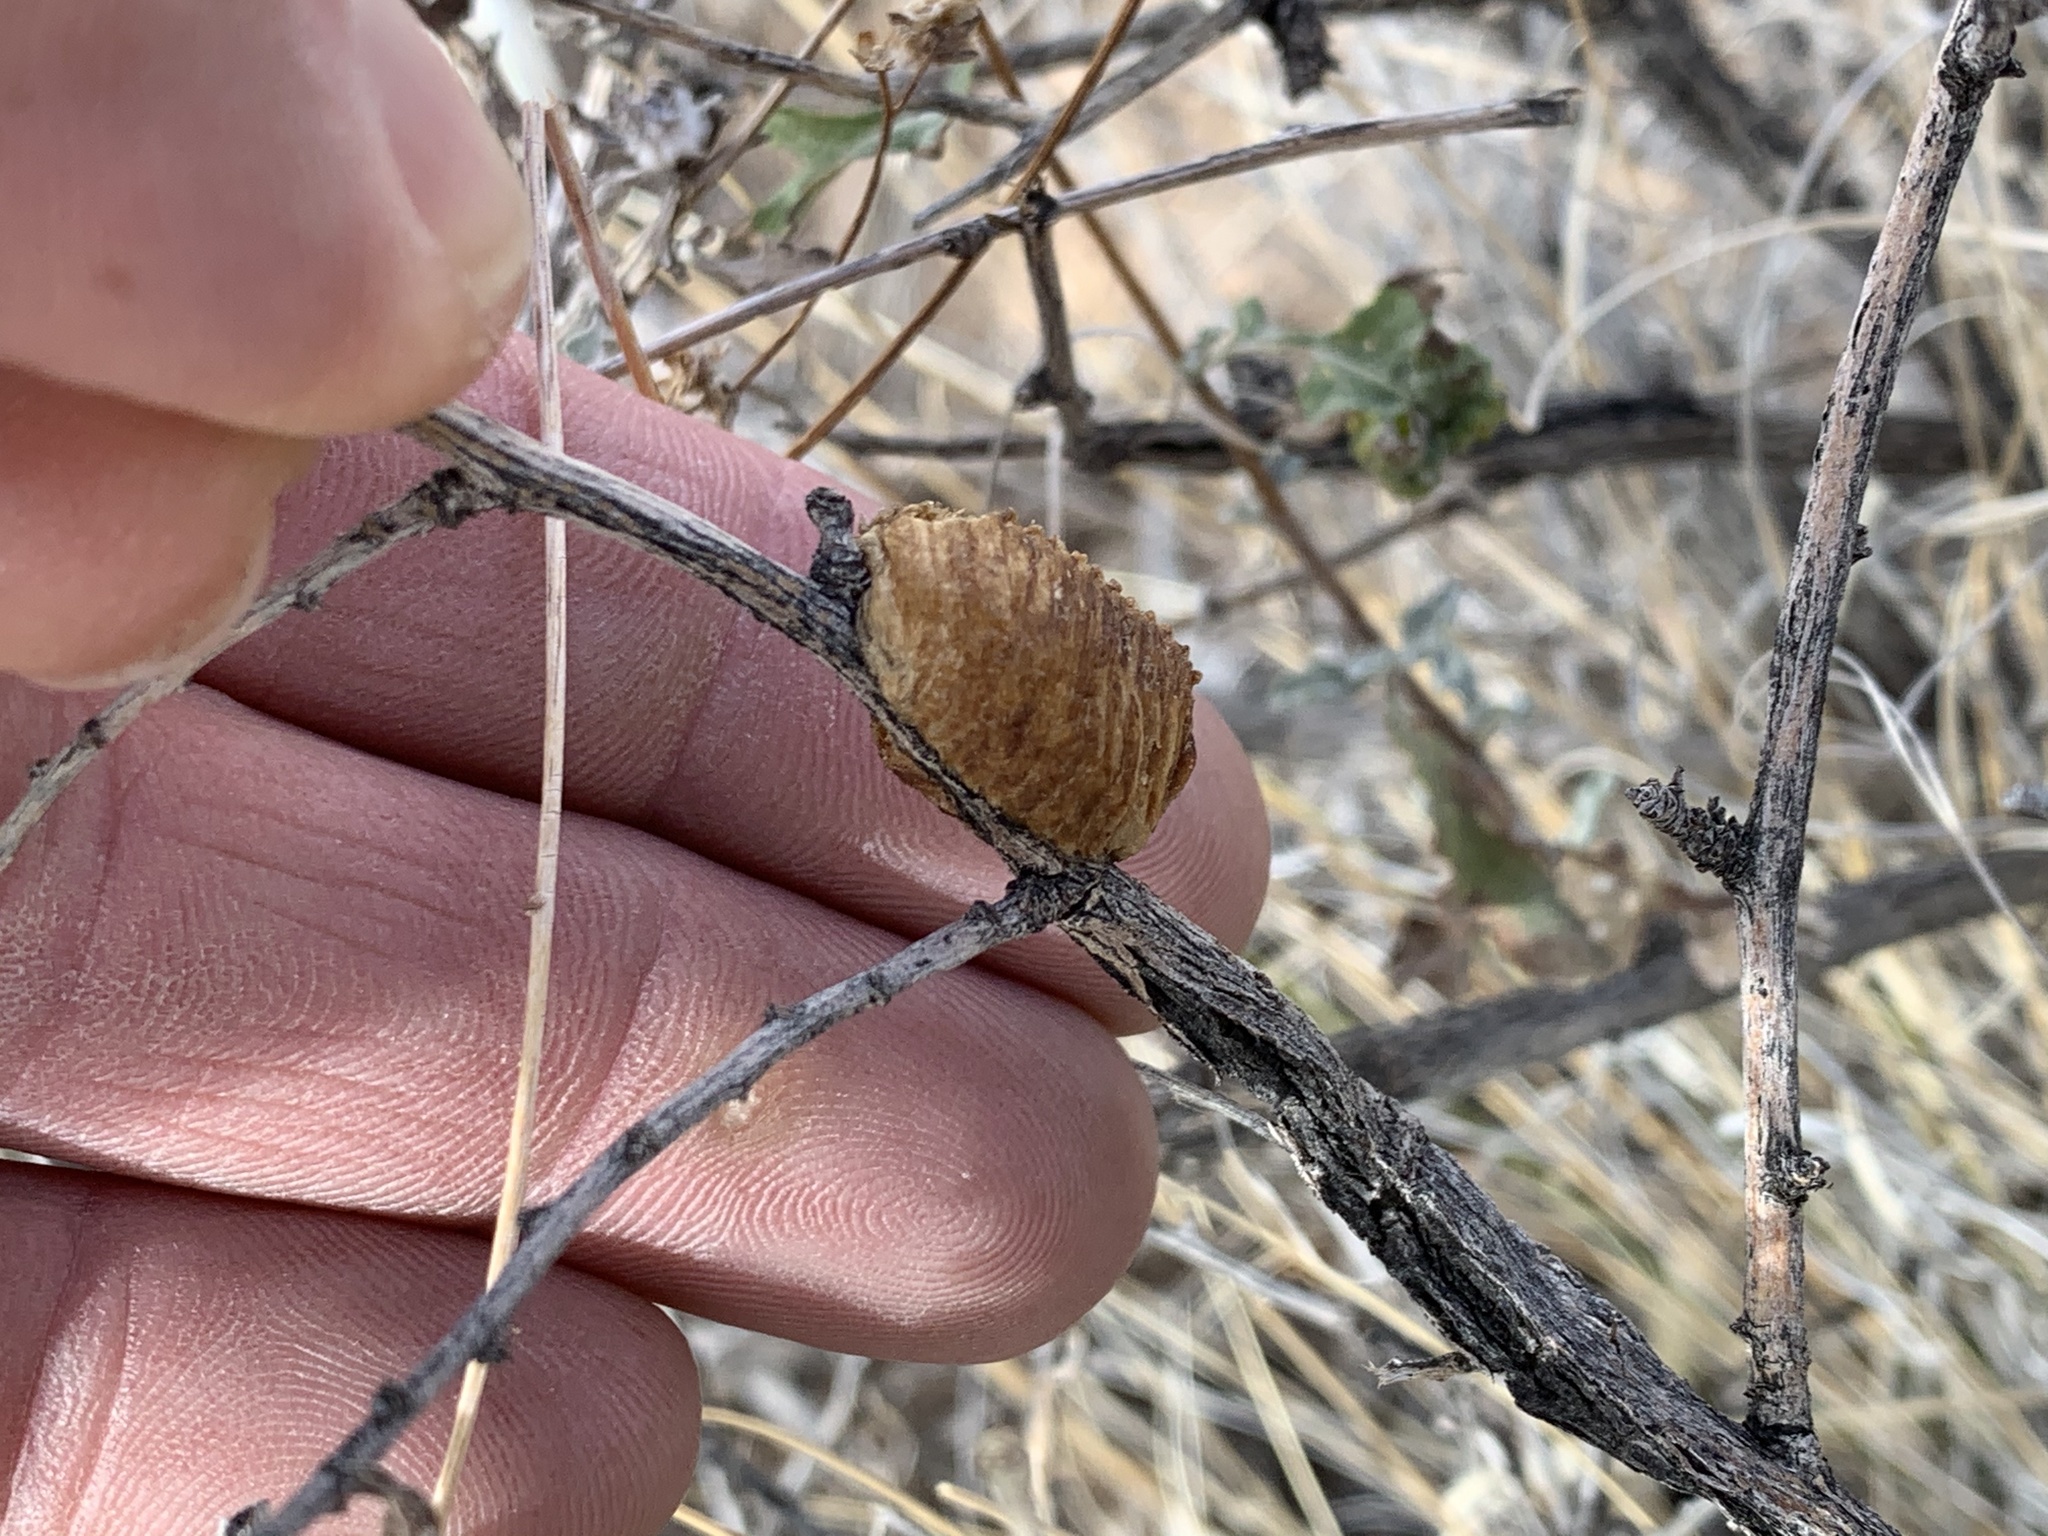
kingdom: Animalia
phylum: Arthropoda
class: Insecta
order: Mantodea
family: Mantidae
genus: Stagmomantis
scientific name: Stagmomantis limbata
